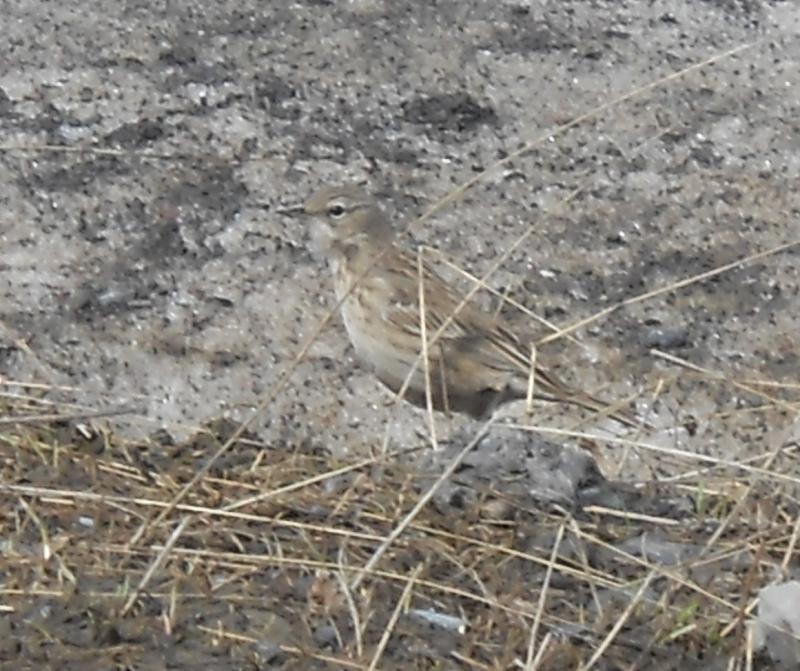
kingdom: Animalia
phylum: Chordata
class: Aves
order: Passeriformes
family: Motacillidae
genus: Anthus
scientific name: Anthus spinoletta
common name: Water pipit
